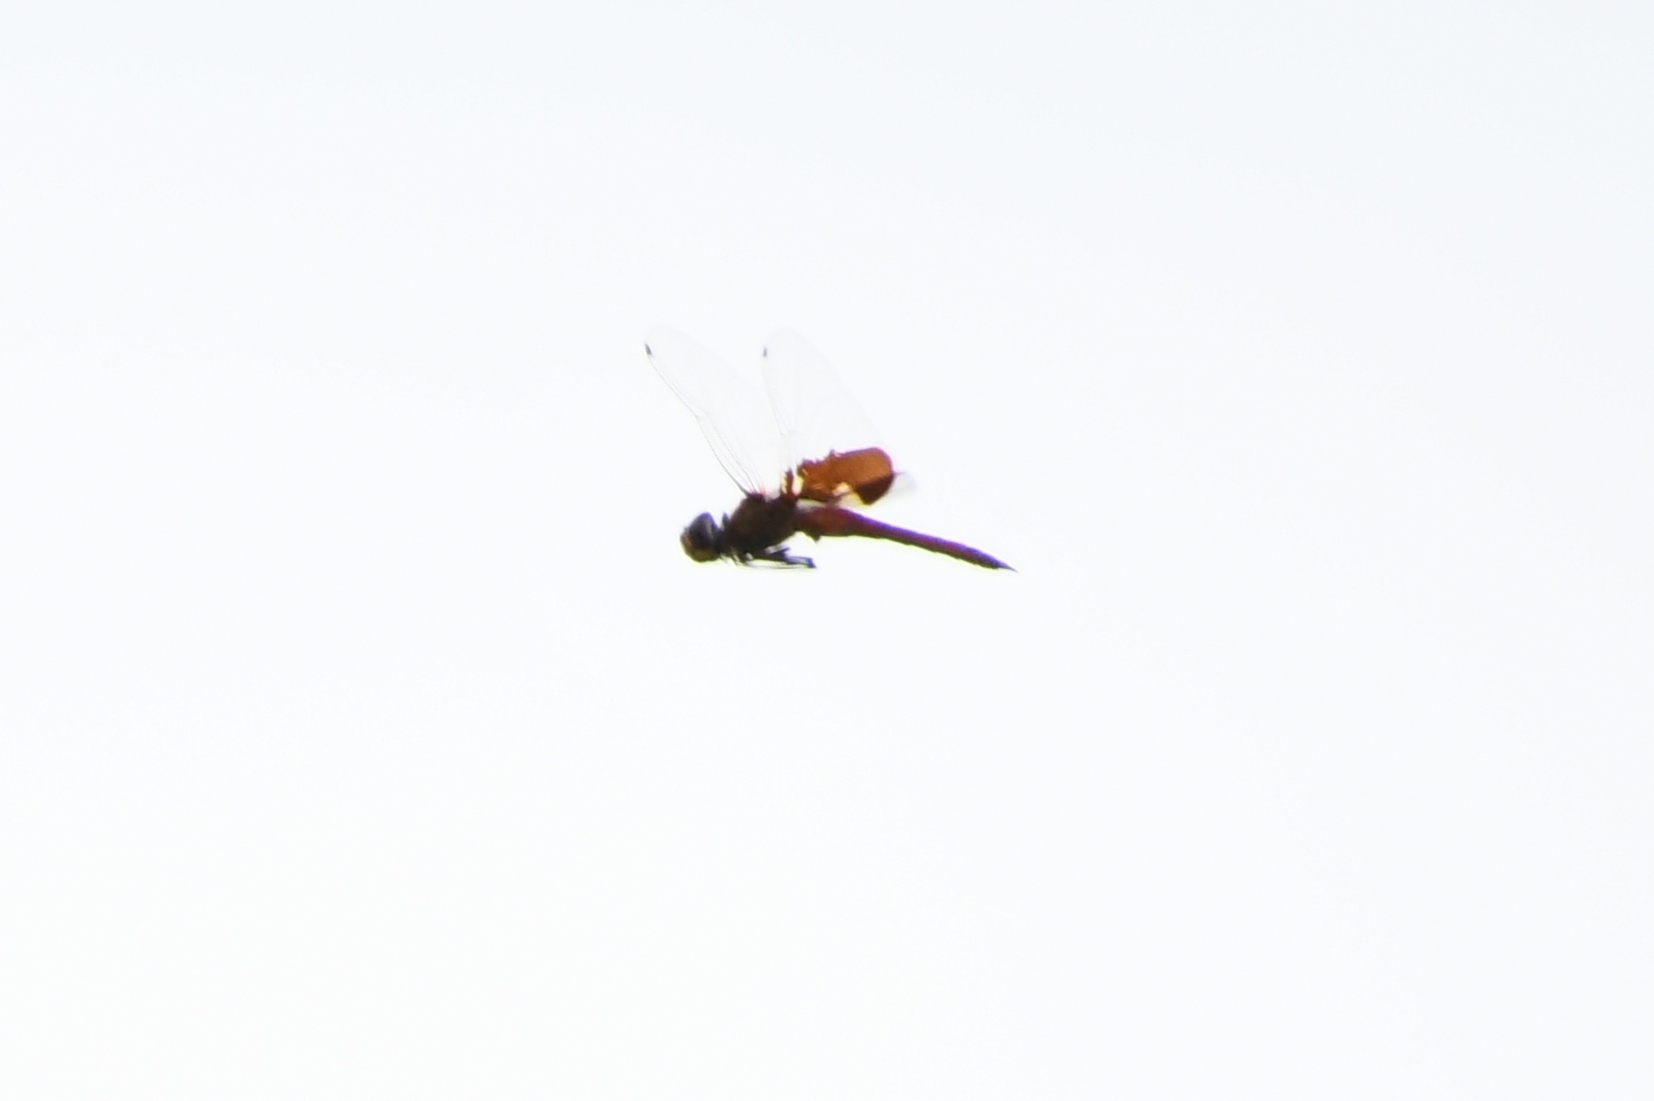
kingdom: Animalia
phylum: Arthropoda
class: Insecta
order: Odonata
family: Libellulidae
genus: Tramea
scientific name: Tramea onusta
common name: Red saddlebags
